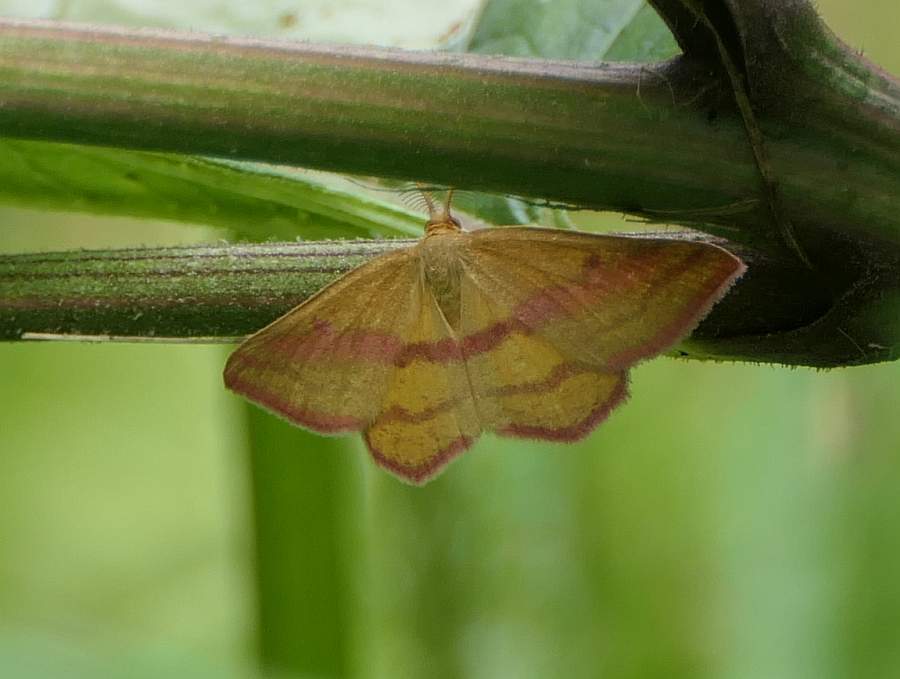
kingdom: Animalia
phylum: Arthropoda
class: Insecta
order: Lepidoptera
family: Geometridae
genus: Haematopis
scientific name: Haematopis grataria
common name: Chickweed geometer
